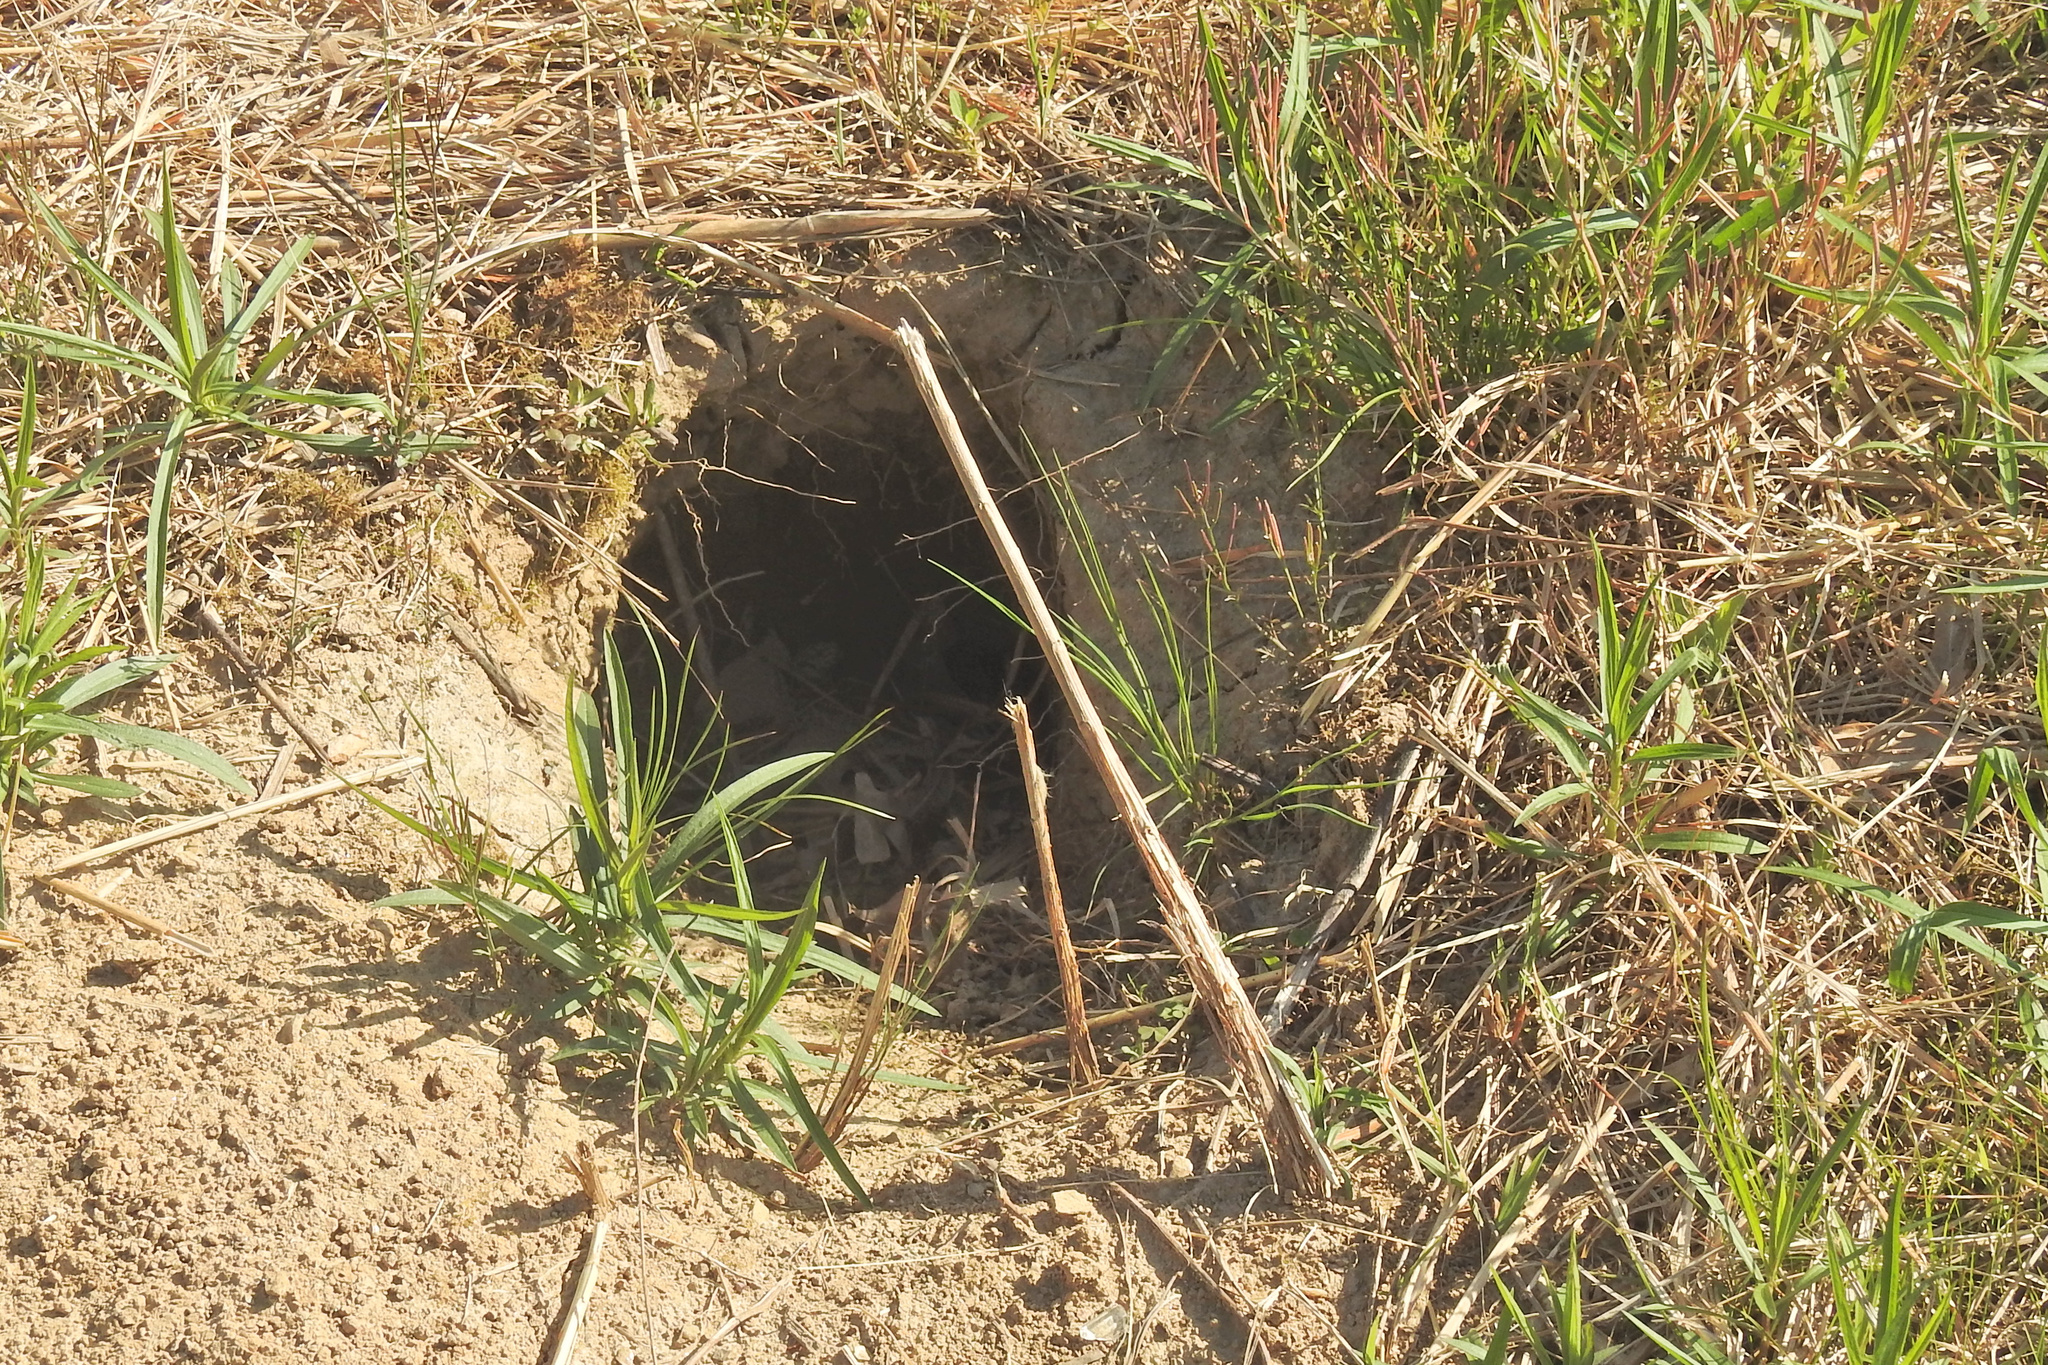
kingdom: Animalia
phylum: Chordata
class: Mammalia
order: Rodentia
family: Sciuridae
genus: Marmota
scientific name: Marmota monax
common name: Groundhog
